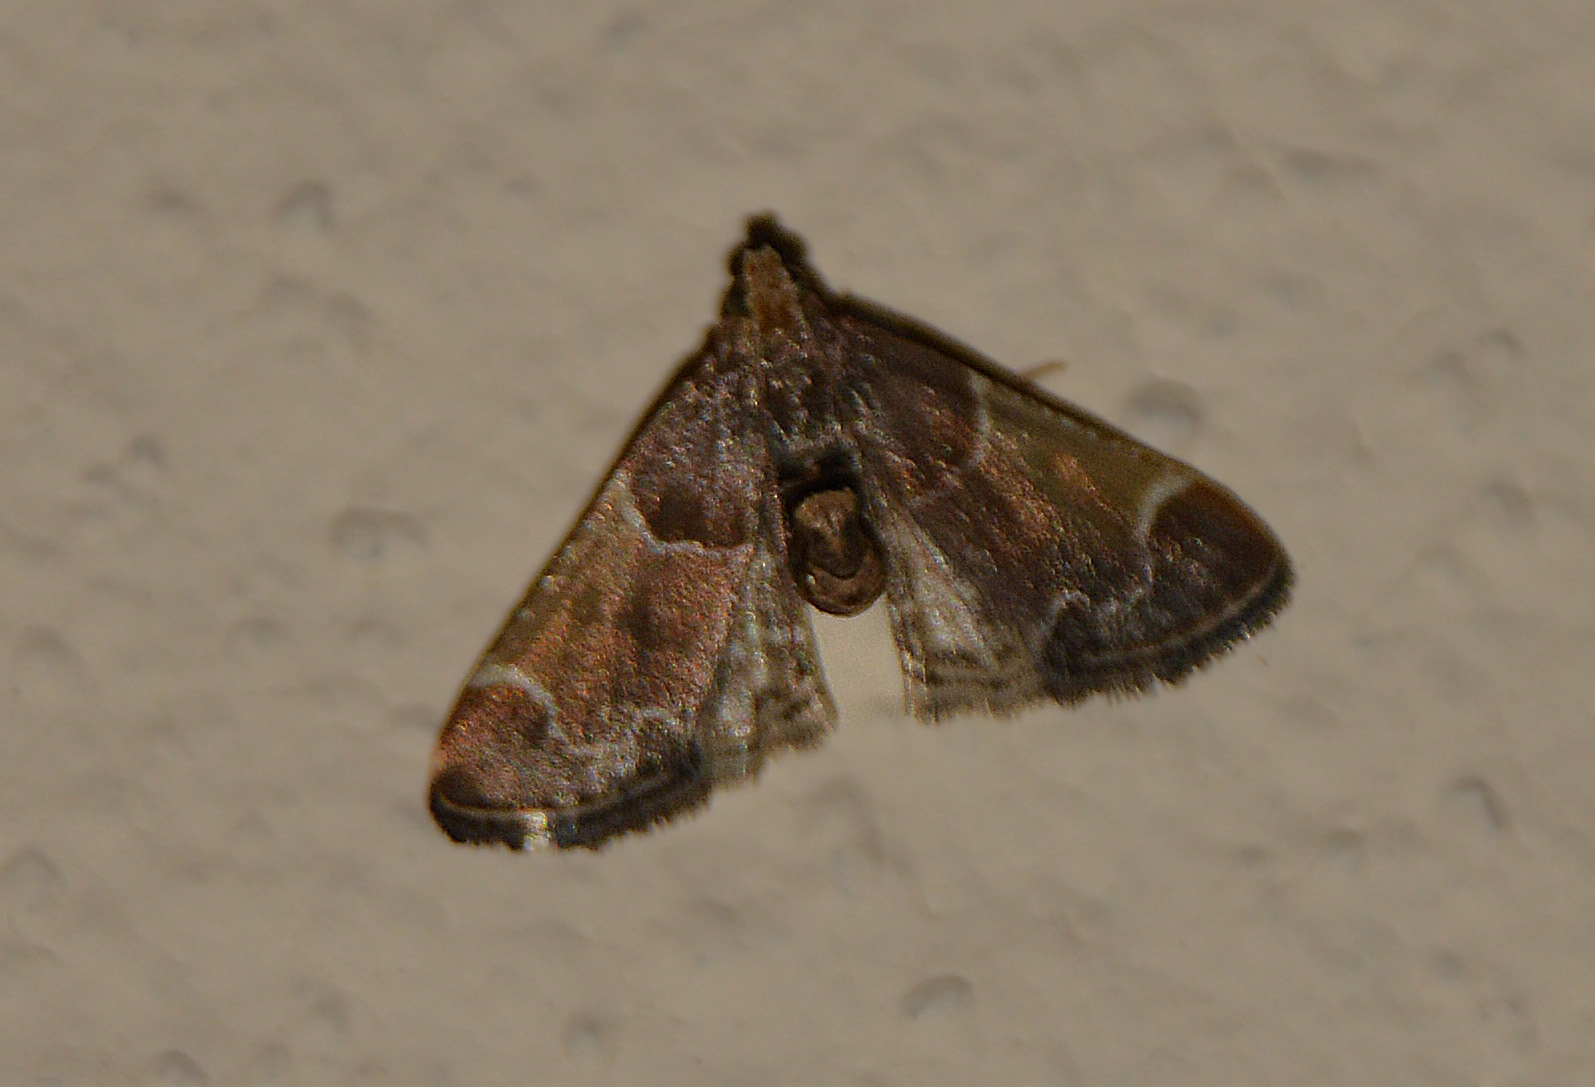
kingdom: Animalia
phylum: Arthropoda
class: Insecta
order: Lepidoptera
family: Pyralidae
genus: Pyralis
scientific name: Pyralis farinalis
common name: Meal moth
